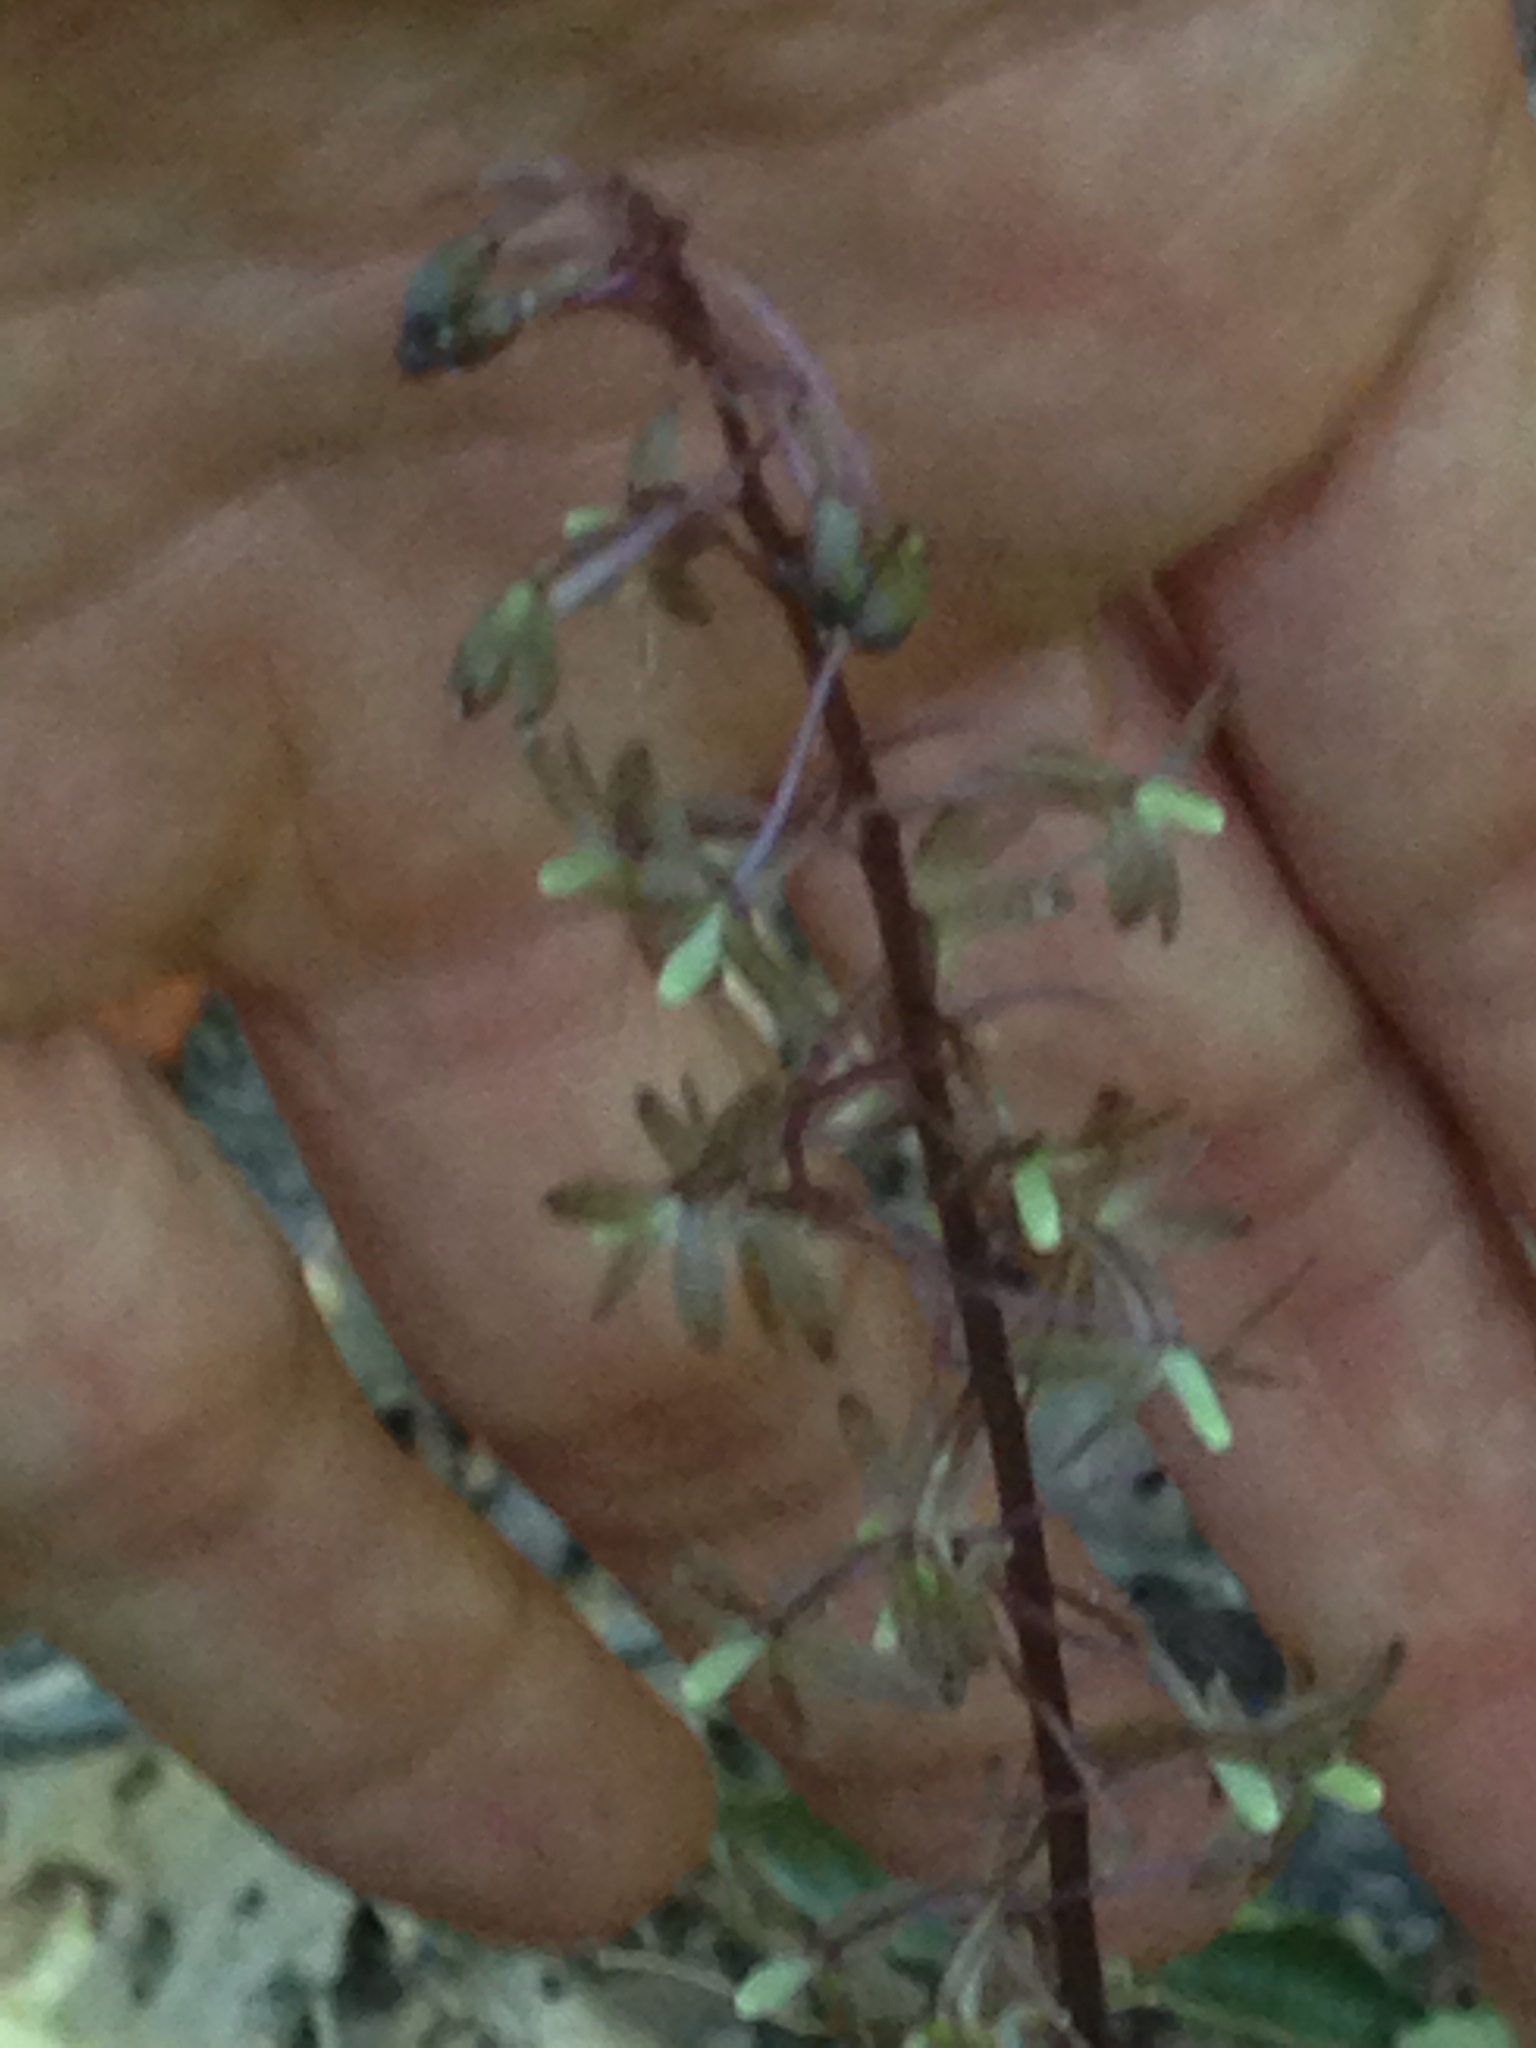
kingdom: Plantae
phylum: Tracheophyta
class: Liliopsida
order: Asparagales
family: Orchidaceae
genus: Tipularia
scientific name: Tipularia discolor
